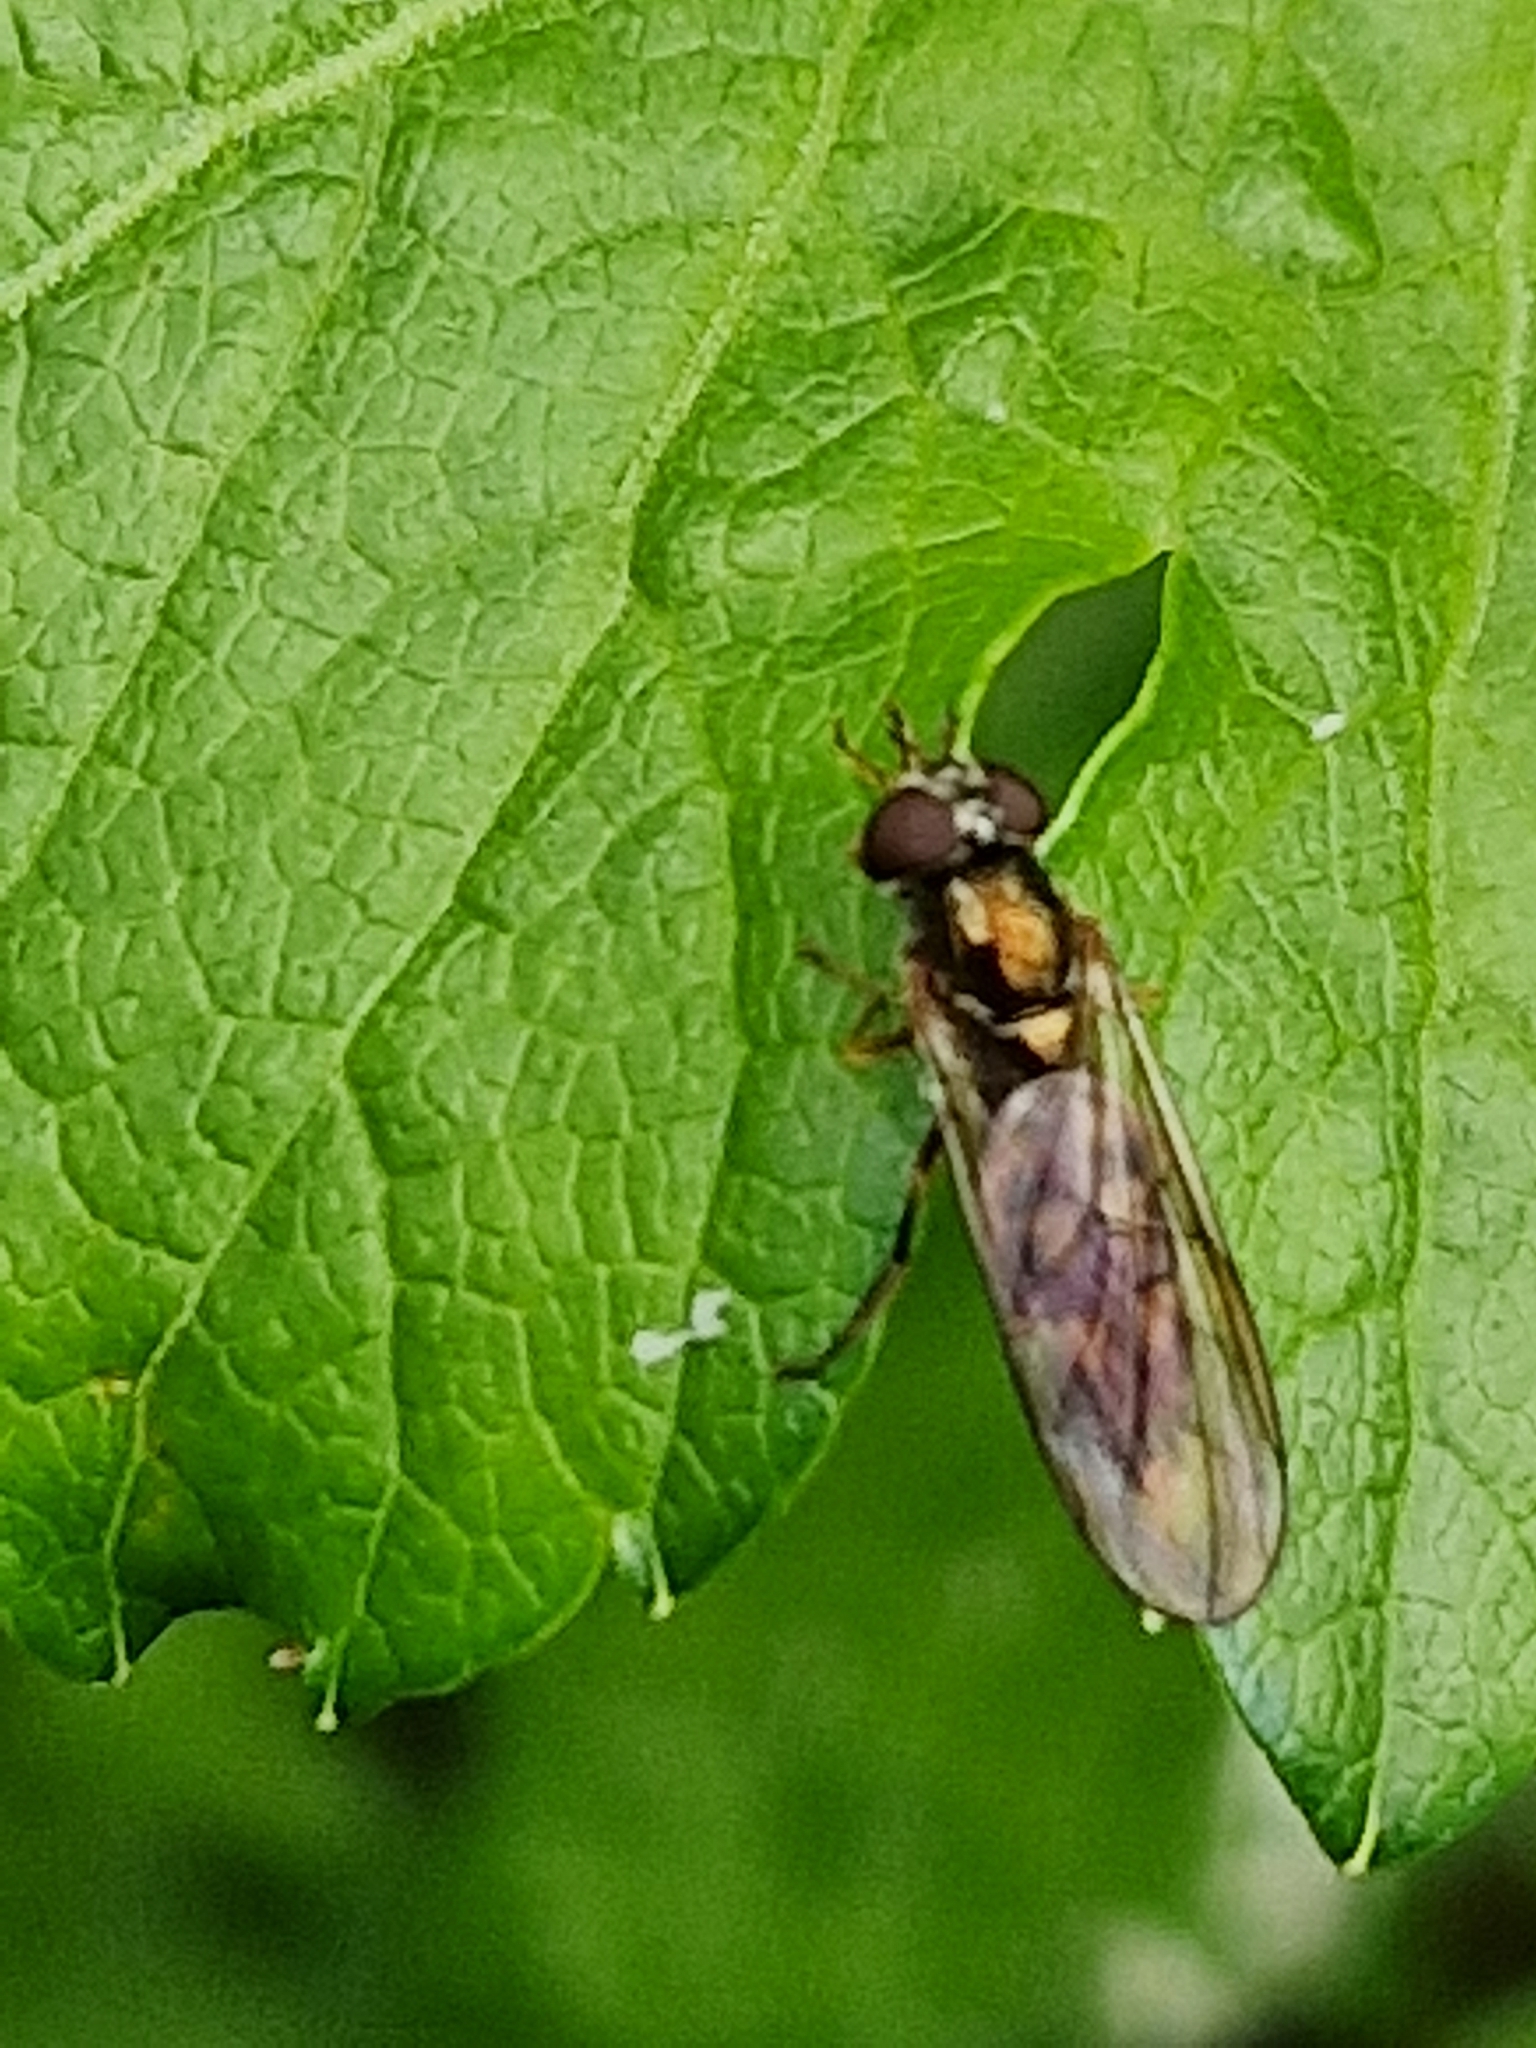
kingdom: Animalia
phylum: Arthropoda
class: Insecta
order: Diptera
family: Syrphidae
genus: Melanostoma
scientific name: Melanostoma scalare
